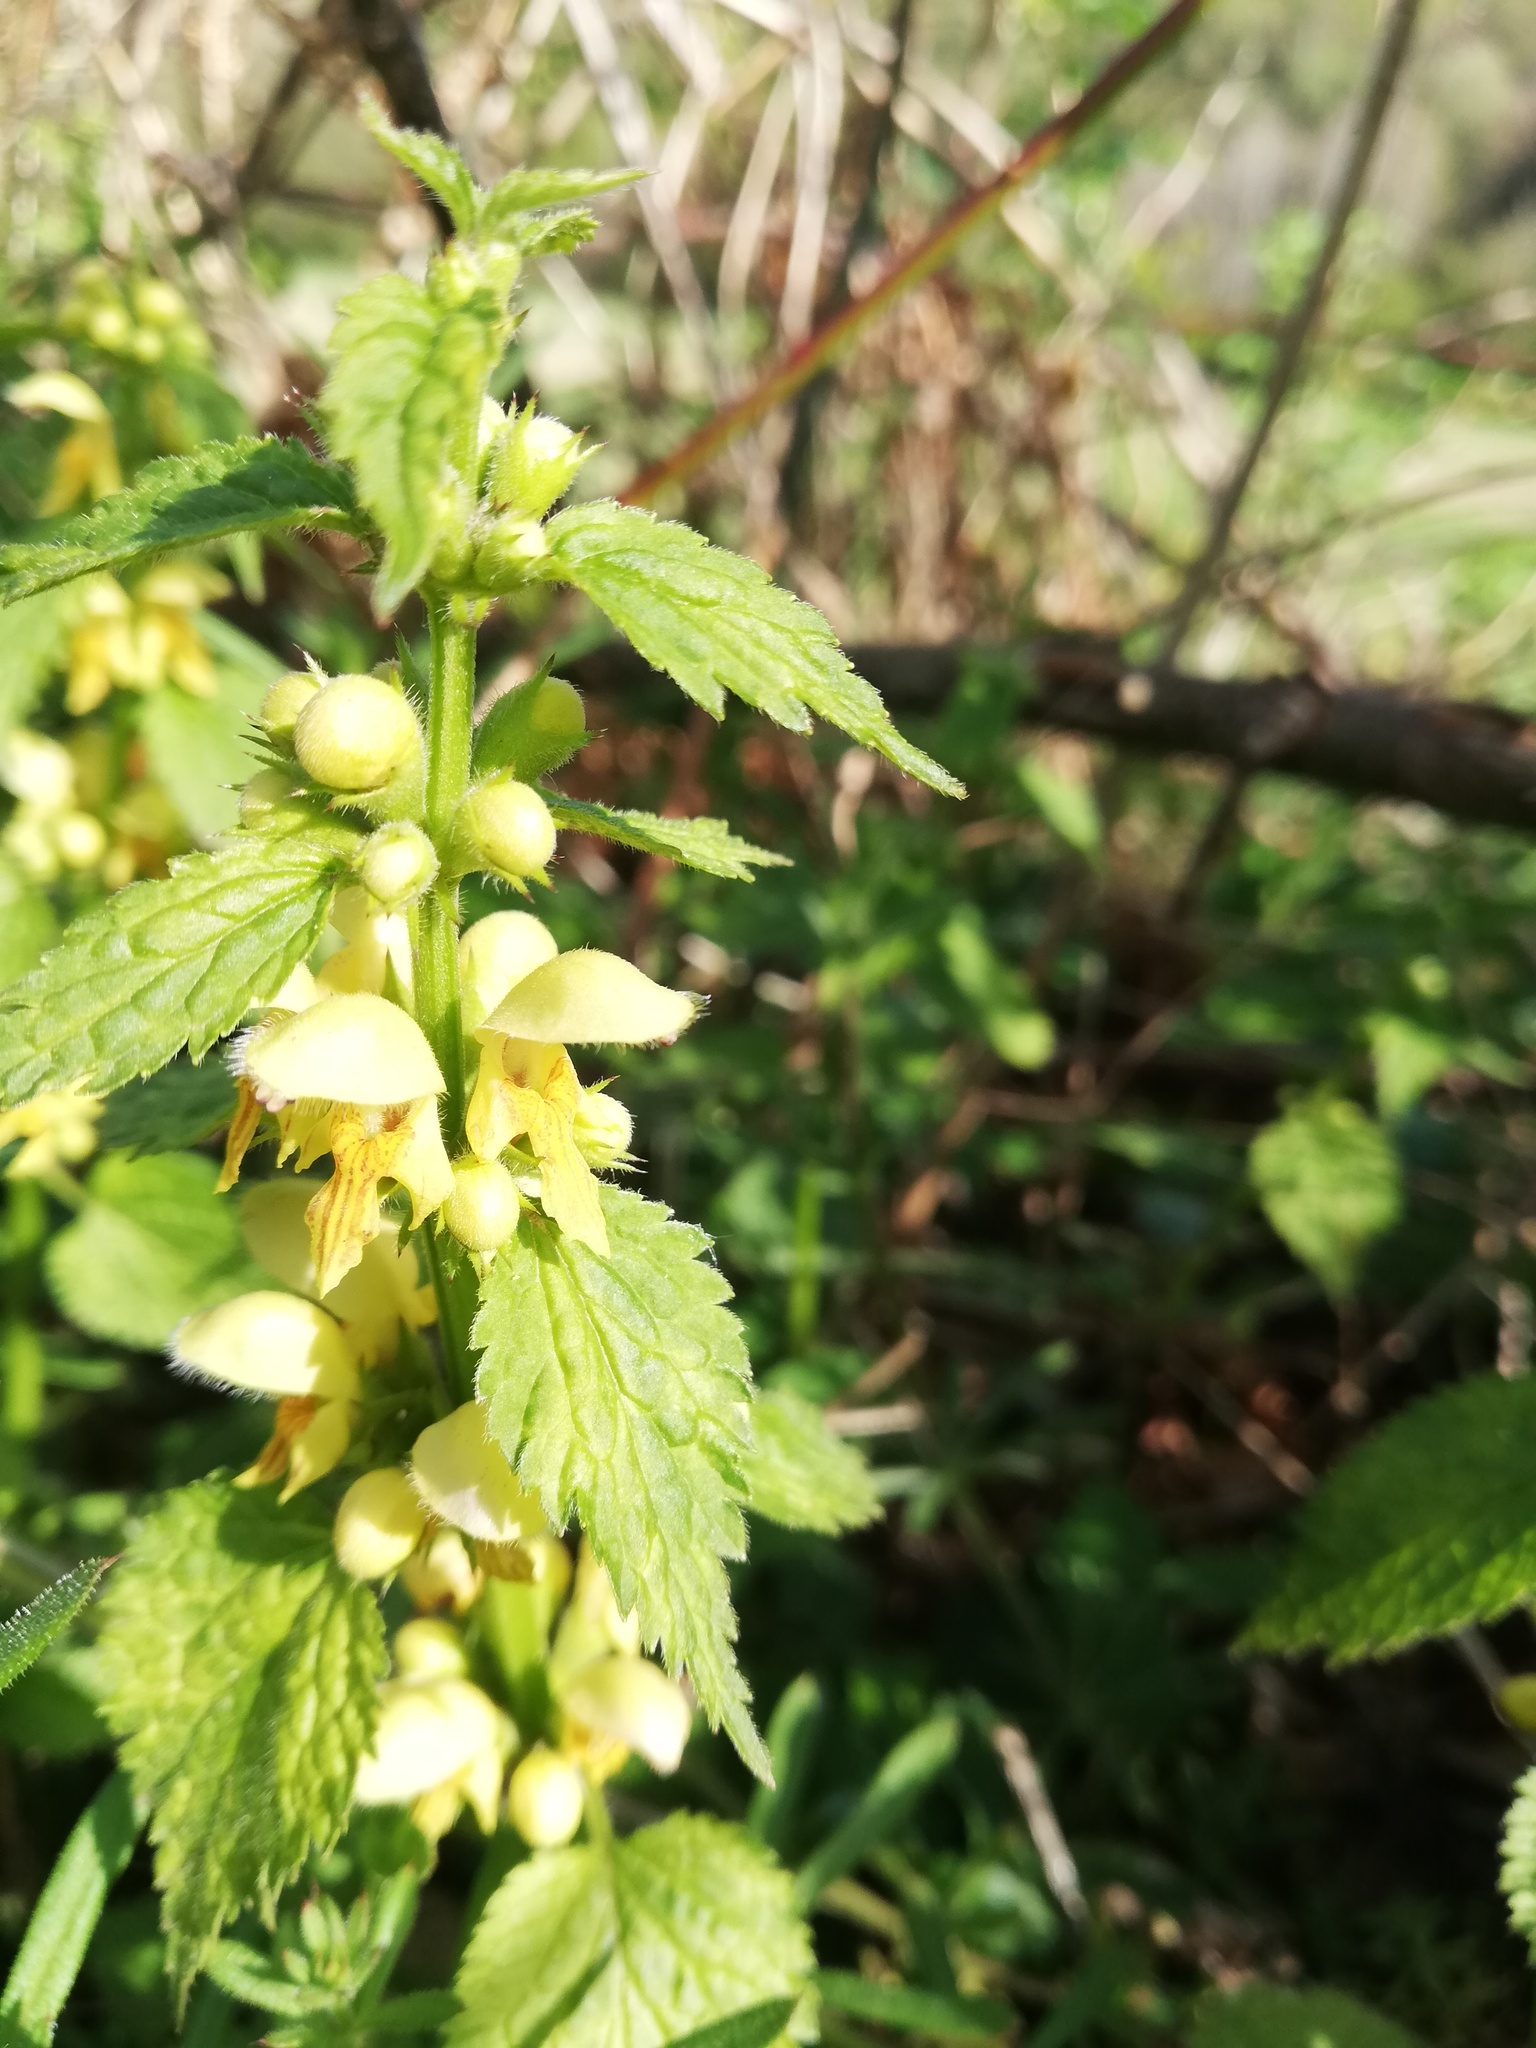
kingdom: Plantae
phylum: Tracheophyta
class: Magnoliopsida
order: Lamiales
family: Lamiaceae
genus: Lamium
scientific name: Lamium galeobdolon
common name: Yellow archangel
